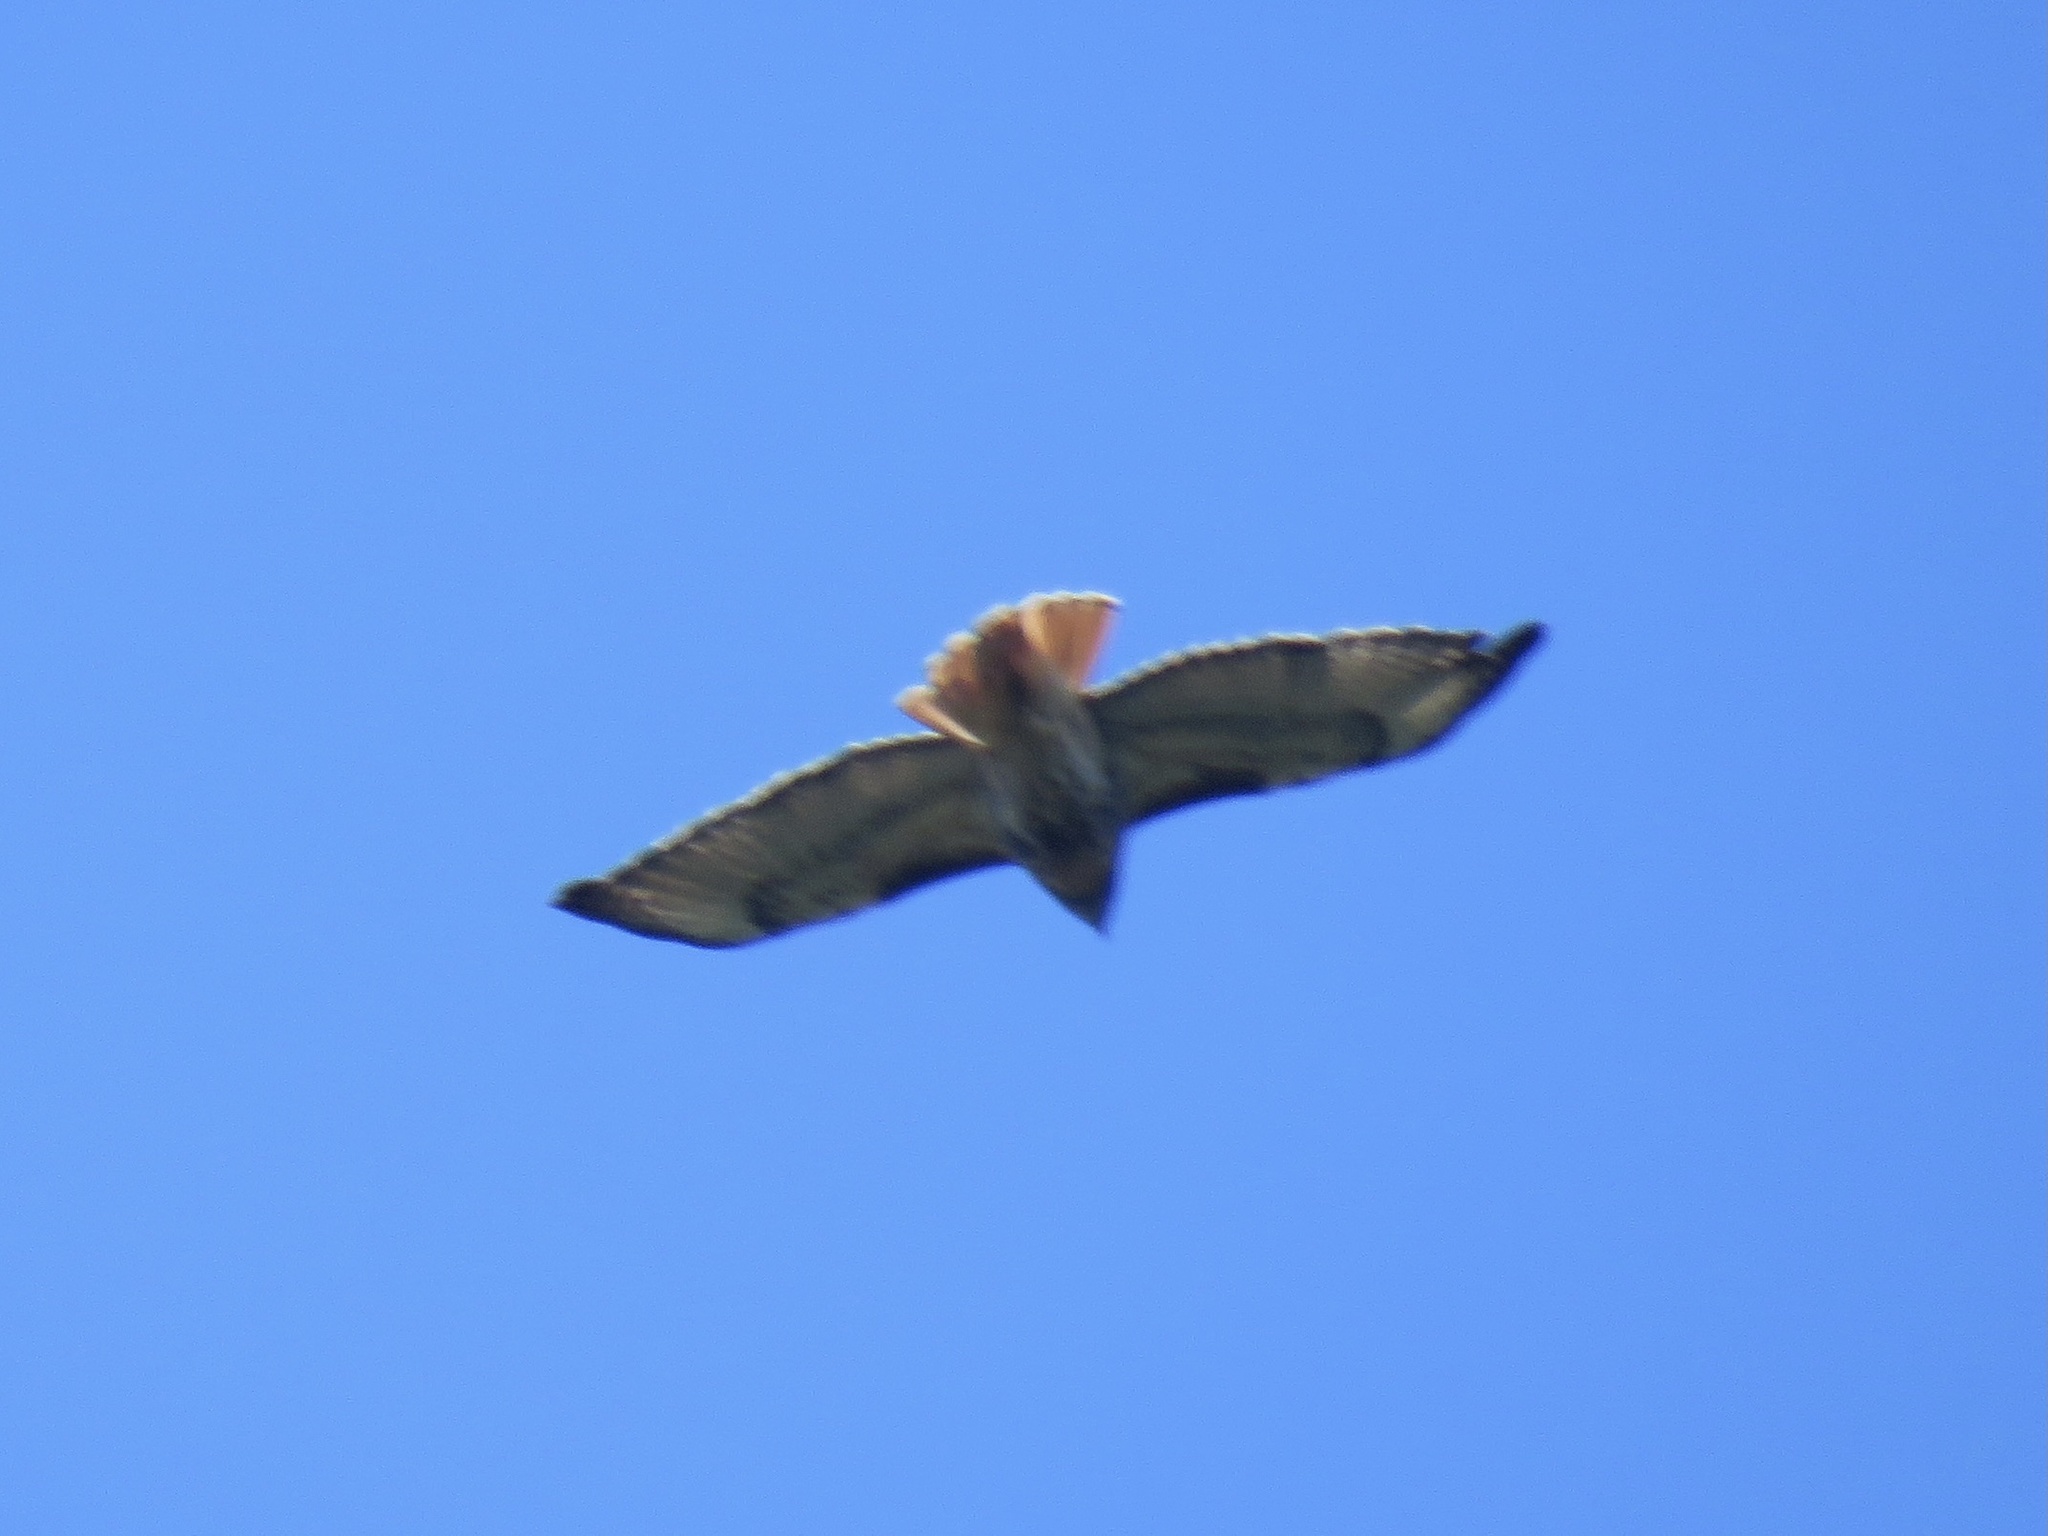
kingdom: Animalia
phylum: Chordata
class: Aves
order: Accipitriformes
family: Accipitridae
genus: Buteo
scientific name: Buteo jamaicensis
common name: Red-tailed hawk
